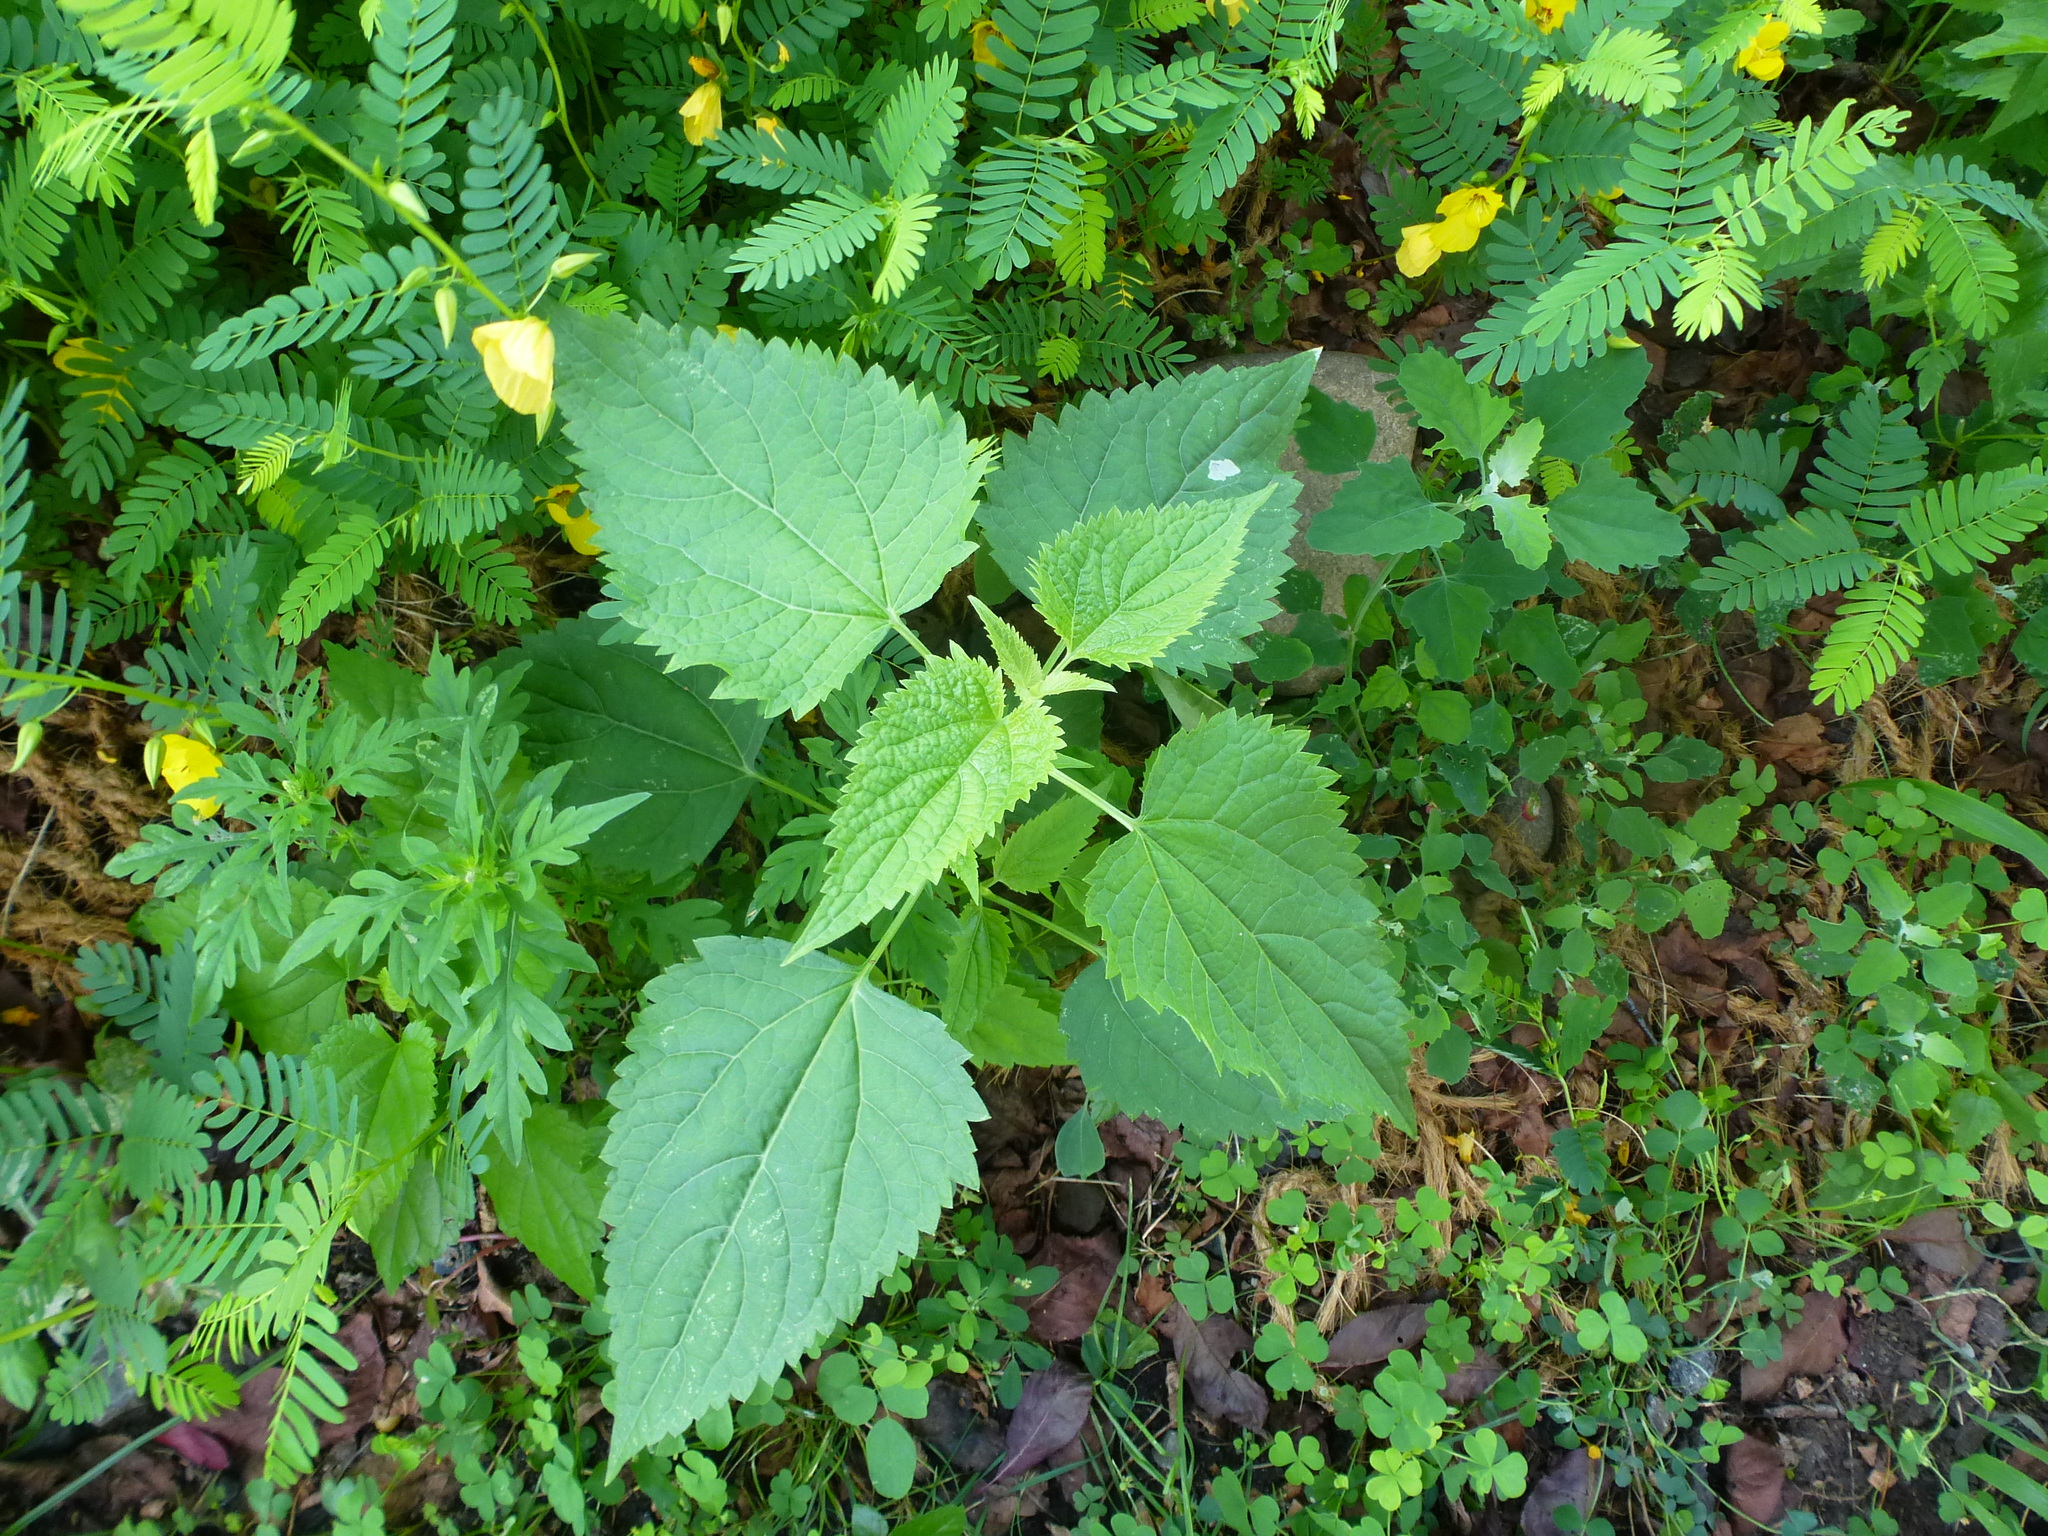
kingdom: Plantae
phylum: Tracheophyta
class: Magnoliopsida
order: Asterales
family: Asteraceae
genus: Ageratina
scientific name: Ageratina altissima
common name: White snakeroot
